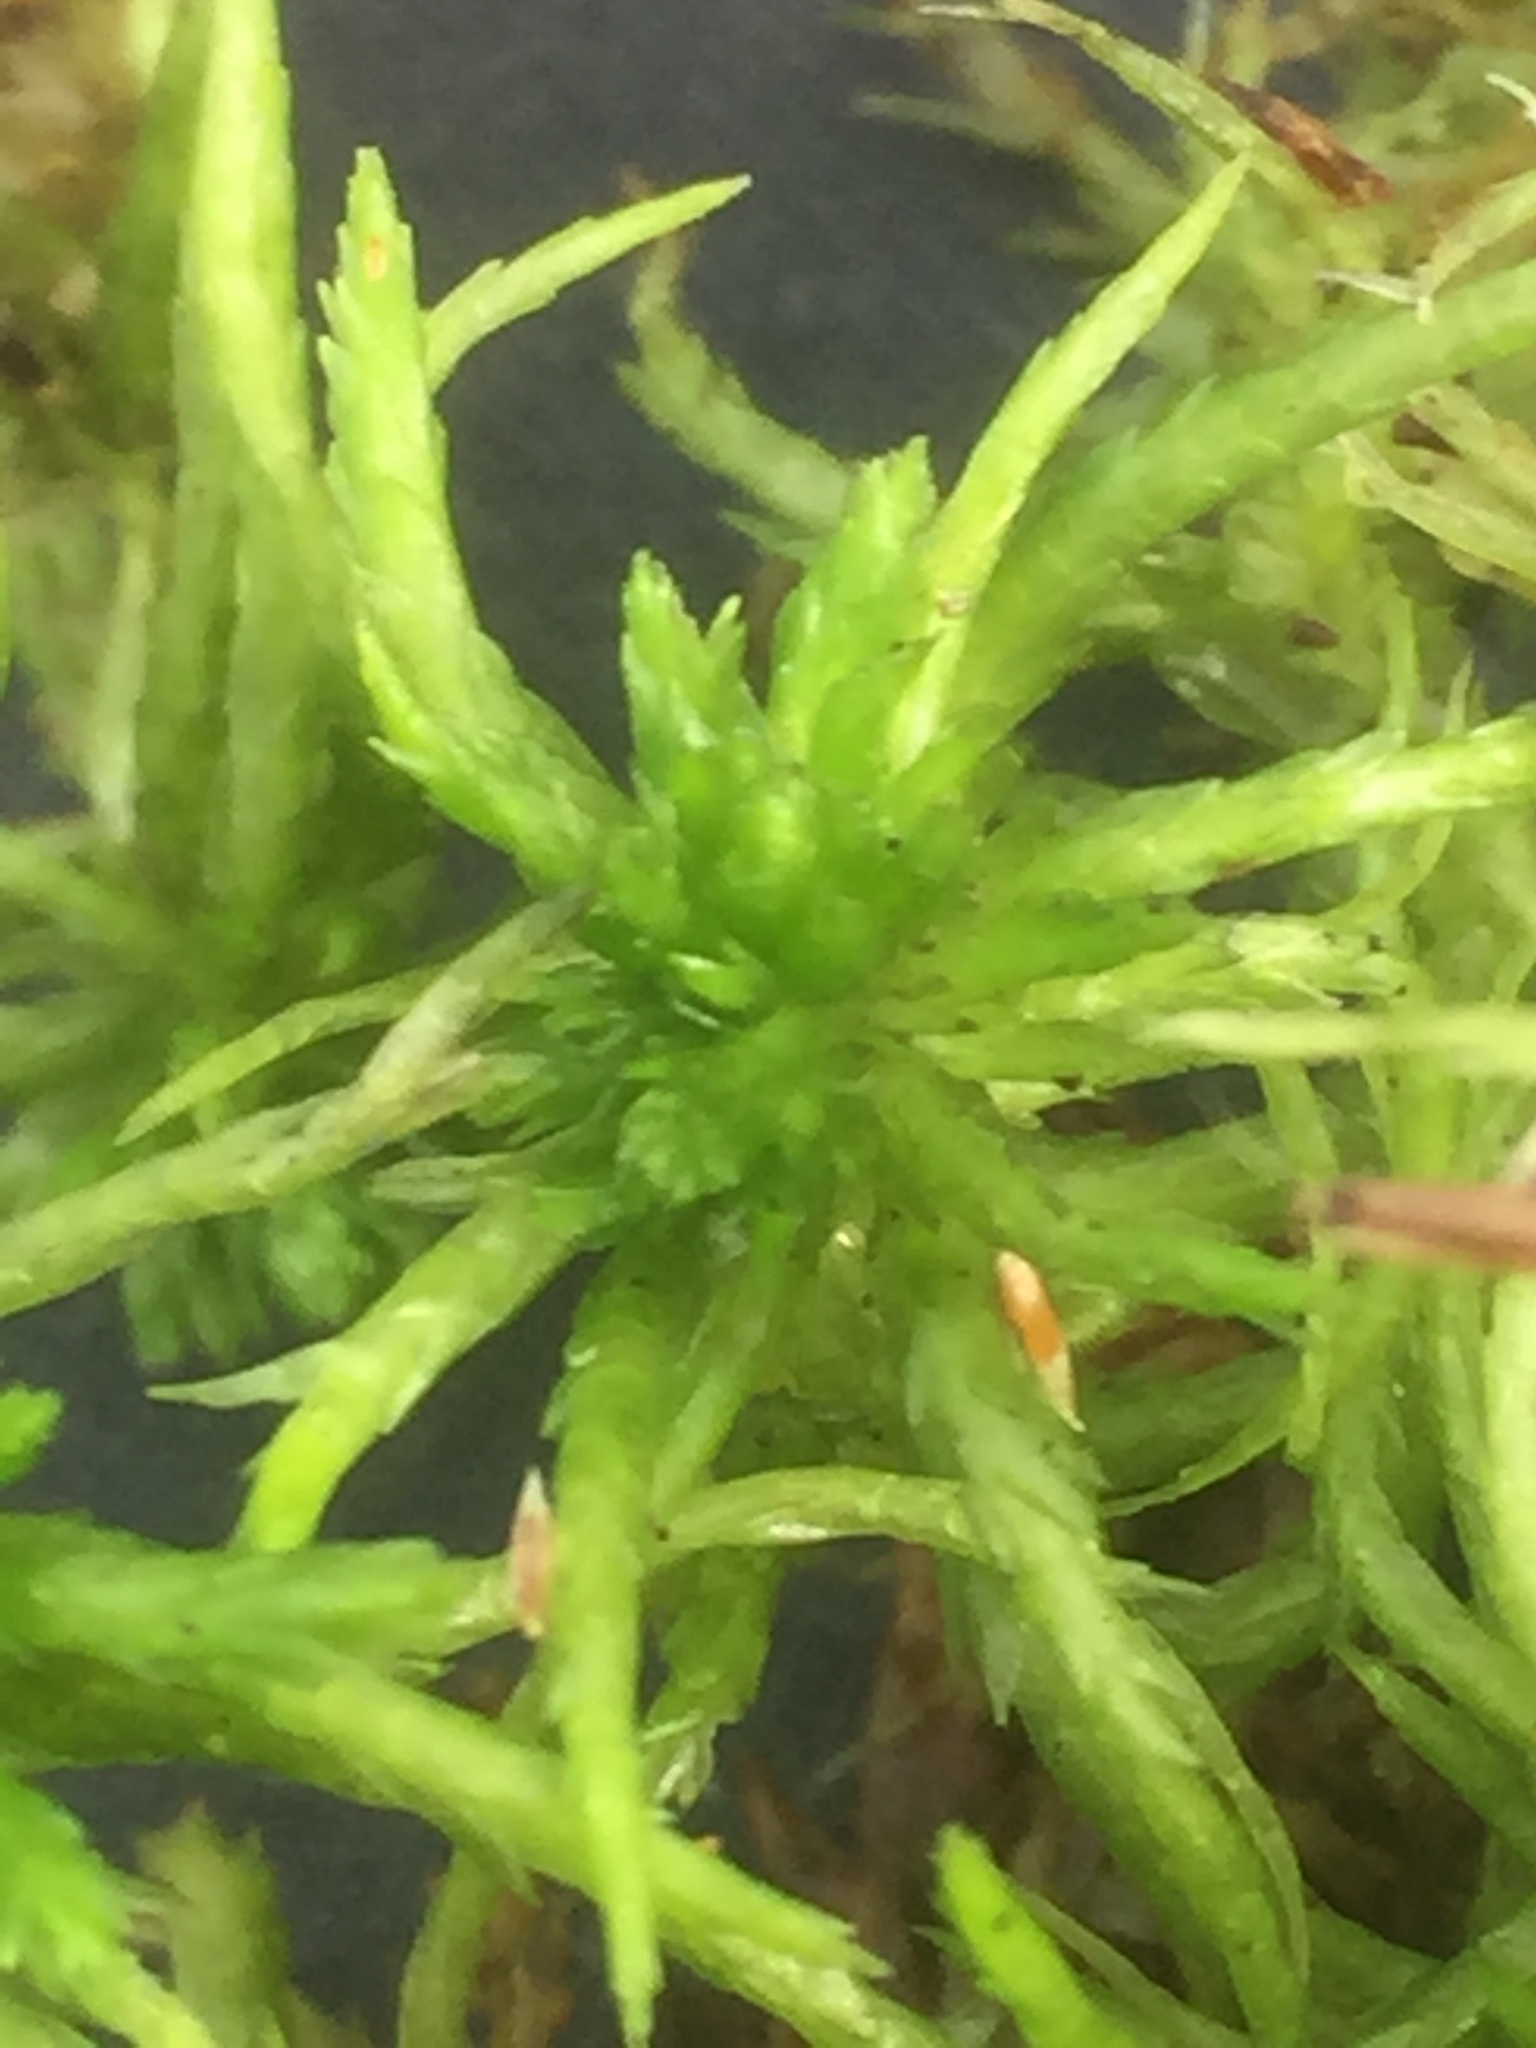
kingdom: Plantae
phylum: Bryophyta
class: Sphagnopsida
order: Sphagnales
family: Sphagnaceae
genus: Sphagnum
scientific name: Sphagnum fallax
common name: Flat-top peat moss
